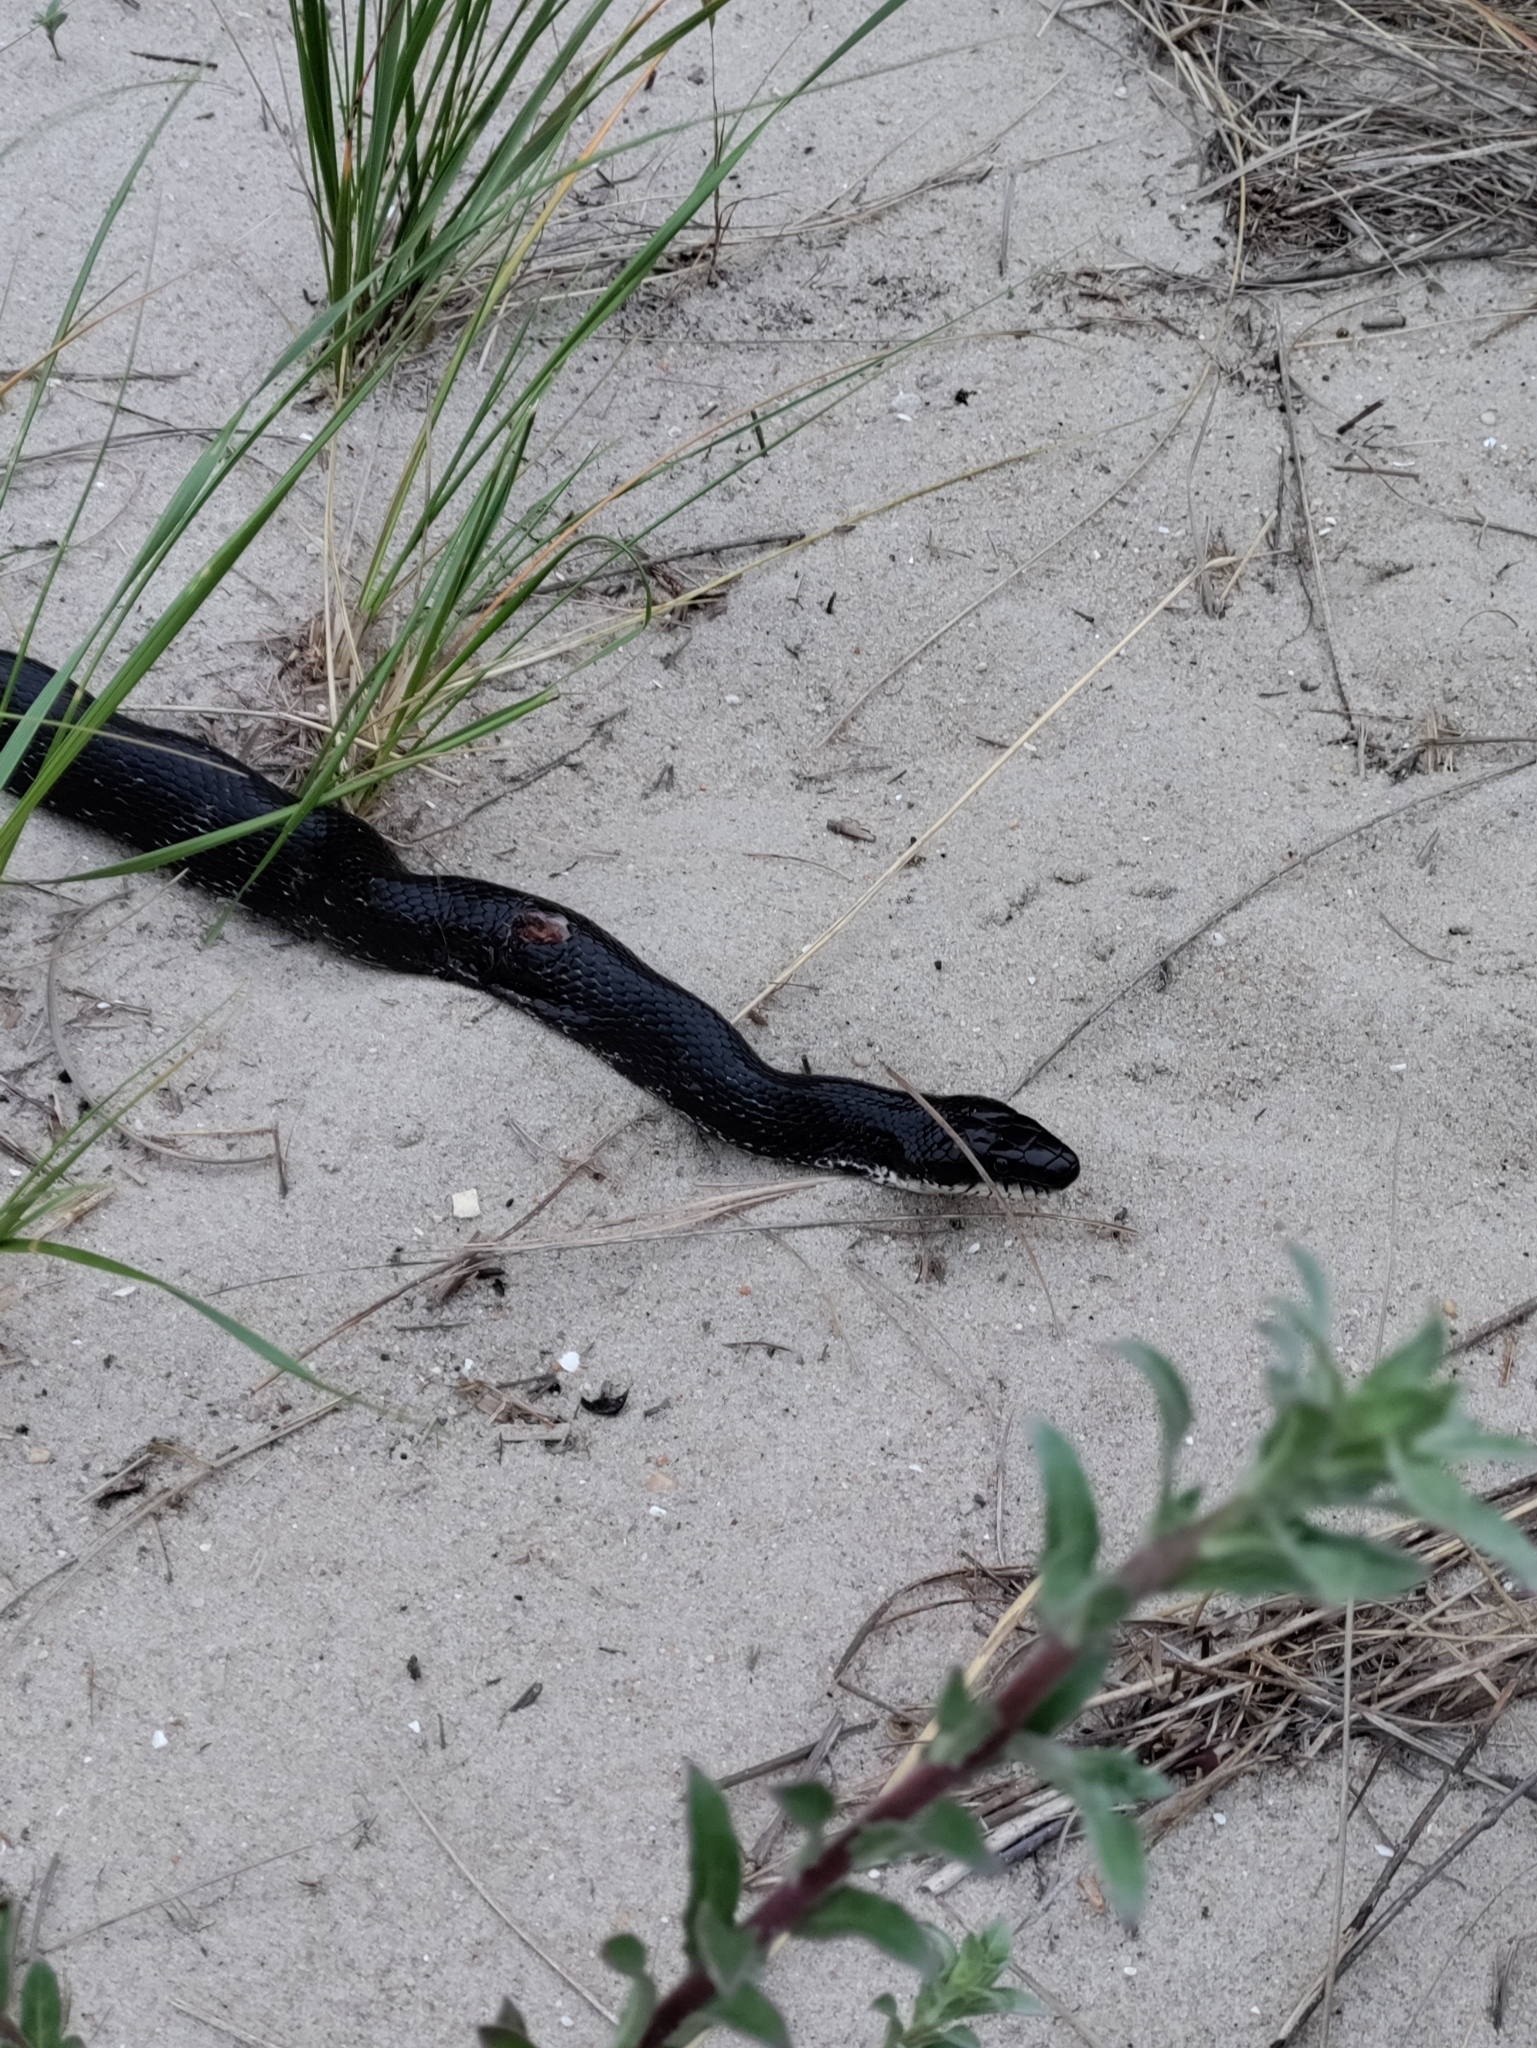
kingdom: Animalia
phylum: Chordata
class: Squamata
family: Colubridae
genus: Pantherophis
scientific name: Pantherophis alleghaniensis
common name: Eastern rat snake
